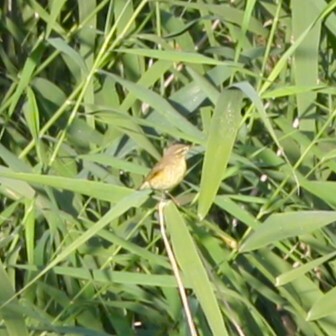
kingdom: Animalia
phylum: Chordata
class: Aves
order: Passeriformes
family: Phylloscopidae
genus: Phylloscopus
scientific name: Phylloscopus trochilus
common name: Willow warbler
